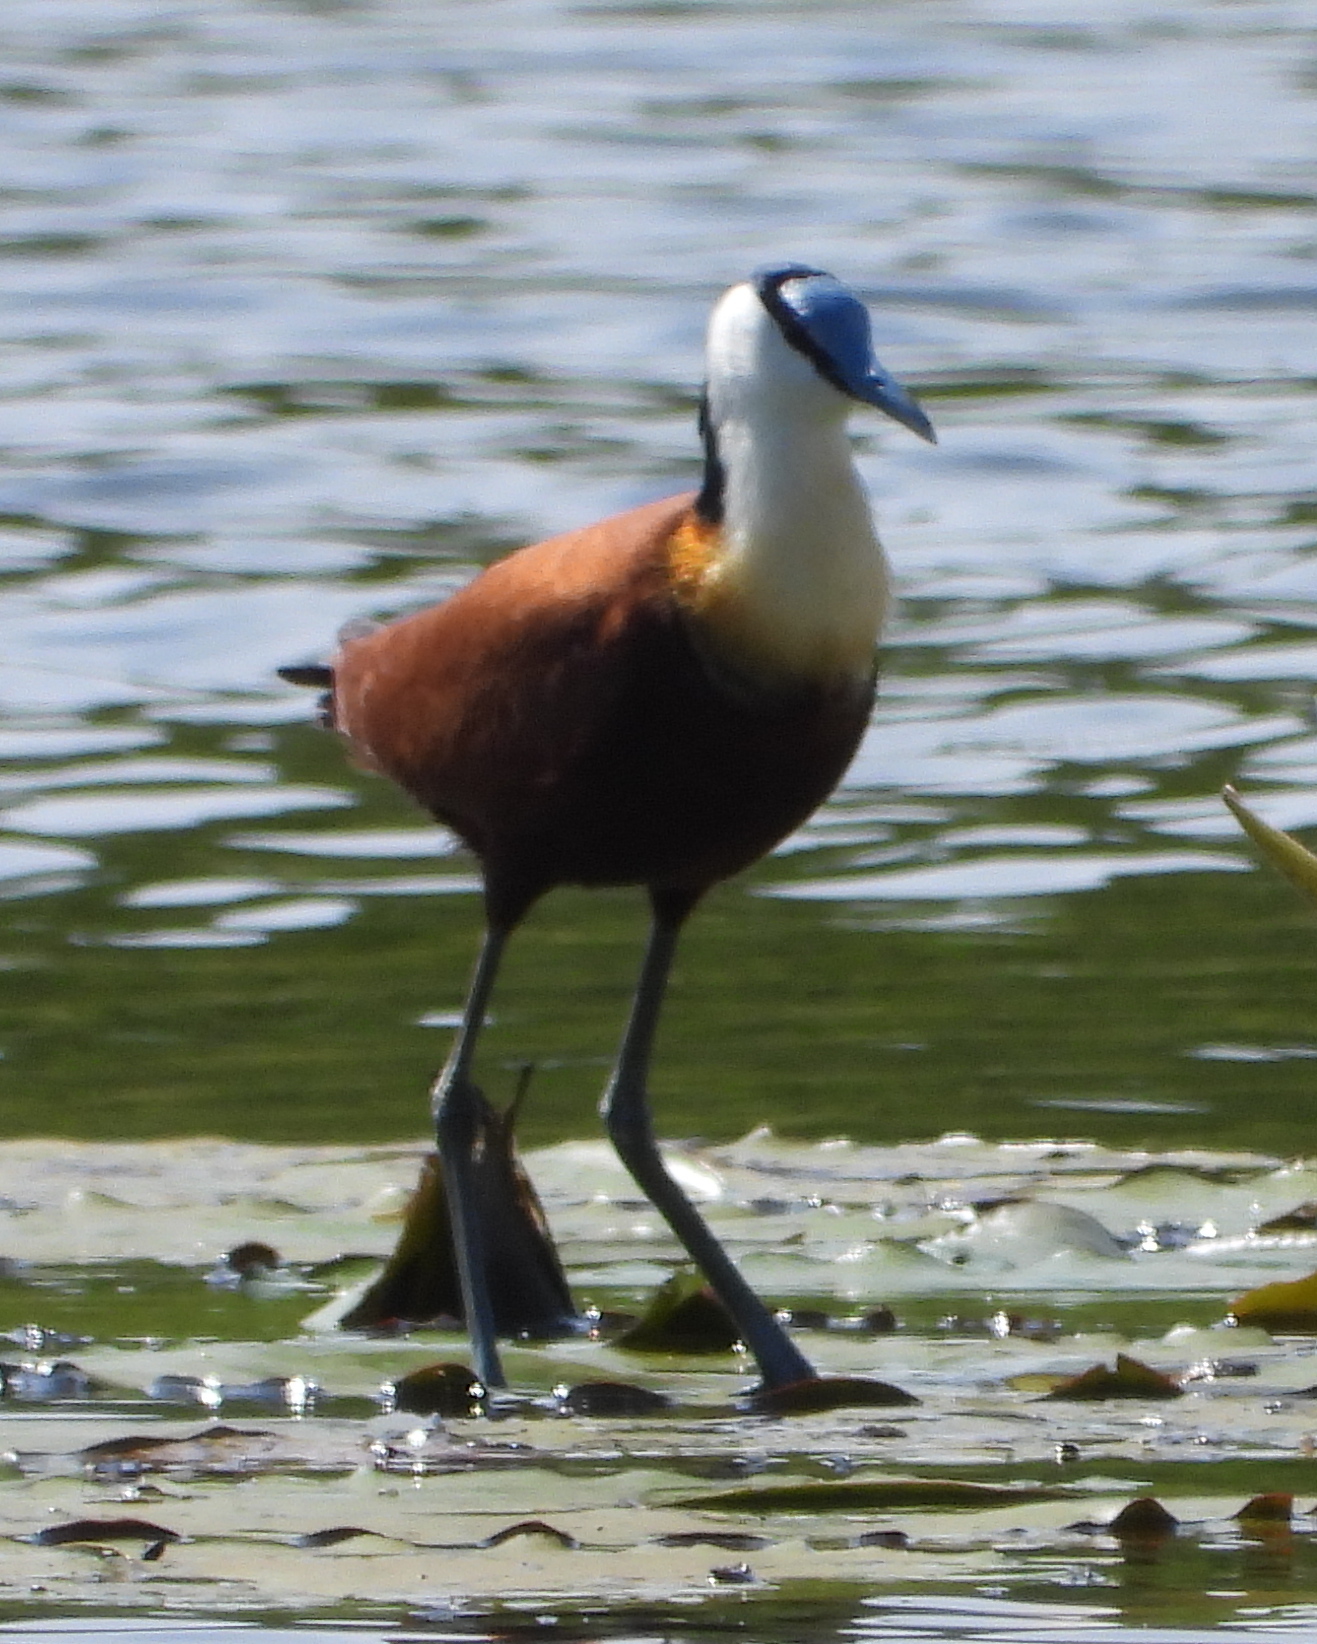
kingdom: Animalia
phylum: Chordata
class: Aves
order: Charadriiformes
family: Jacanidae
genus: Actophilornis
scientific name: Actophilornis africanus
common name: African jacana
